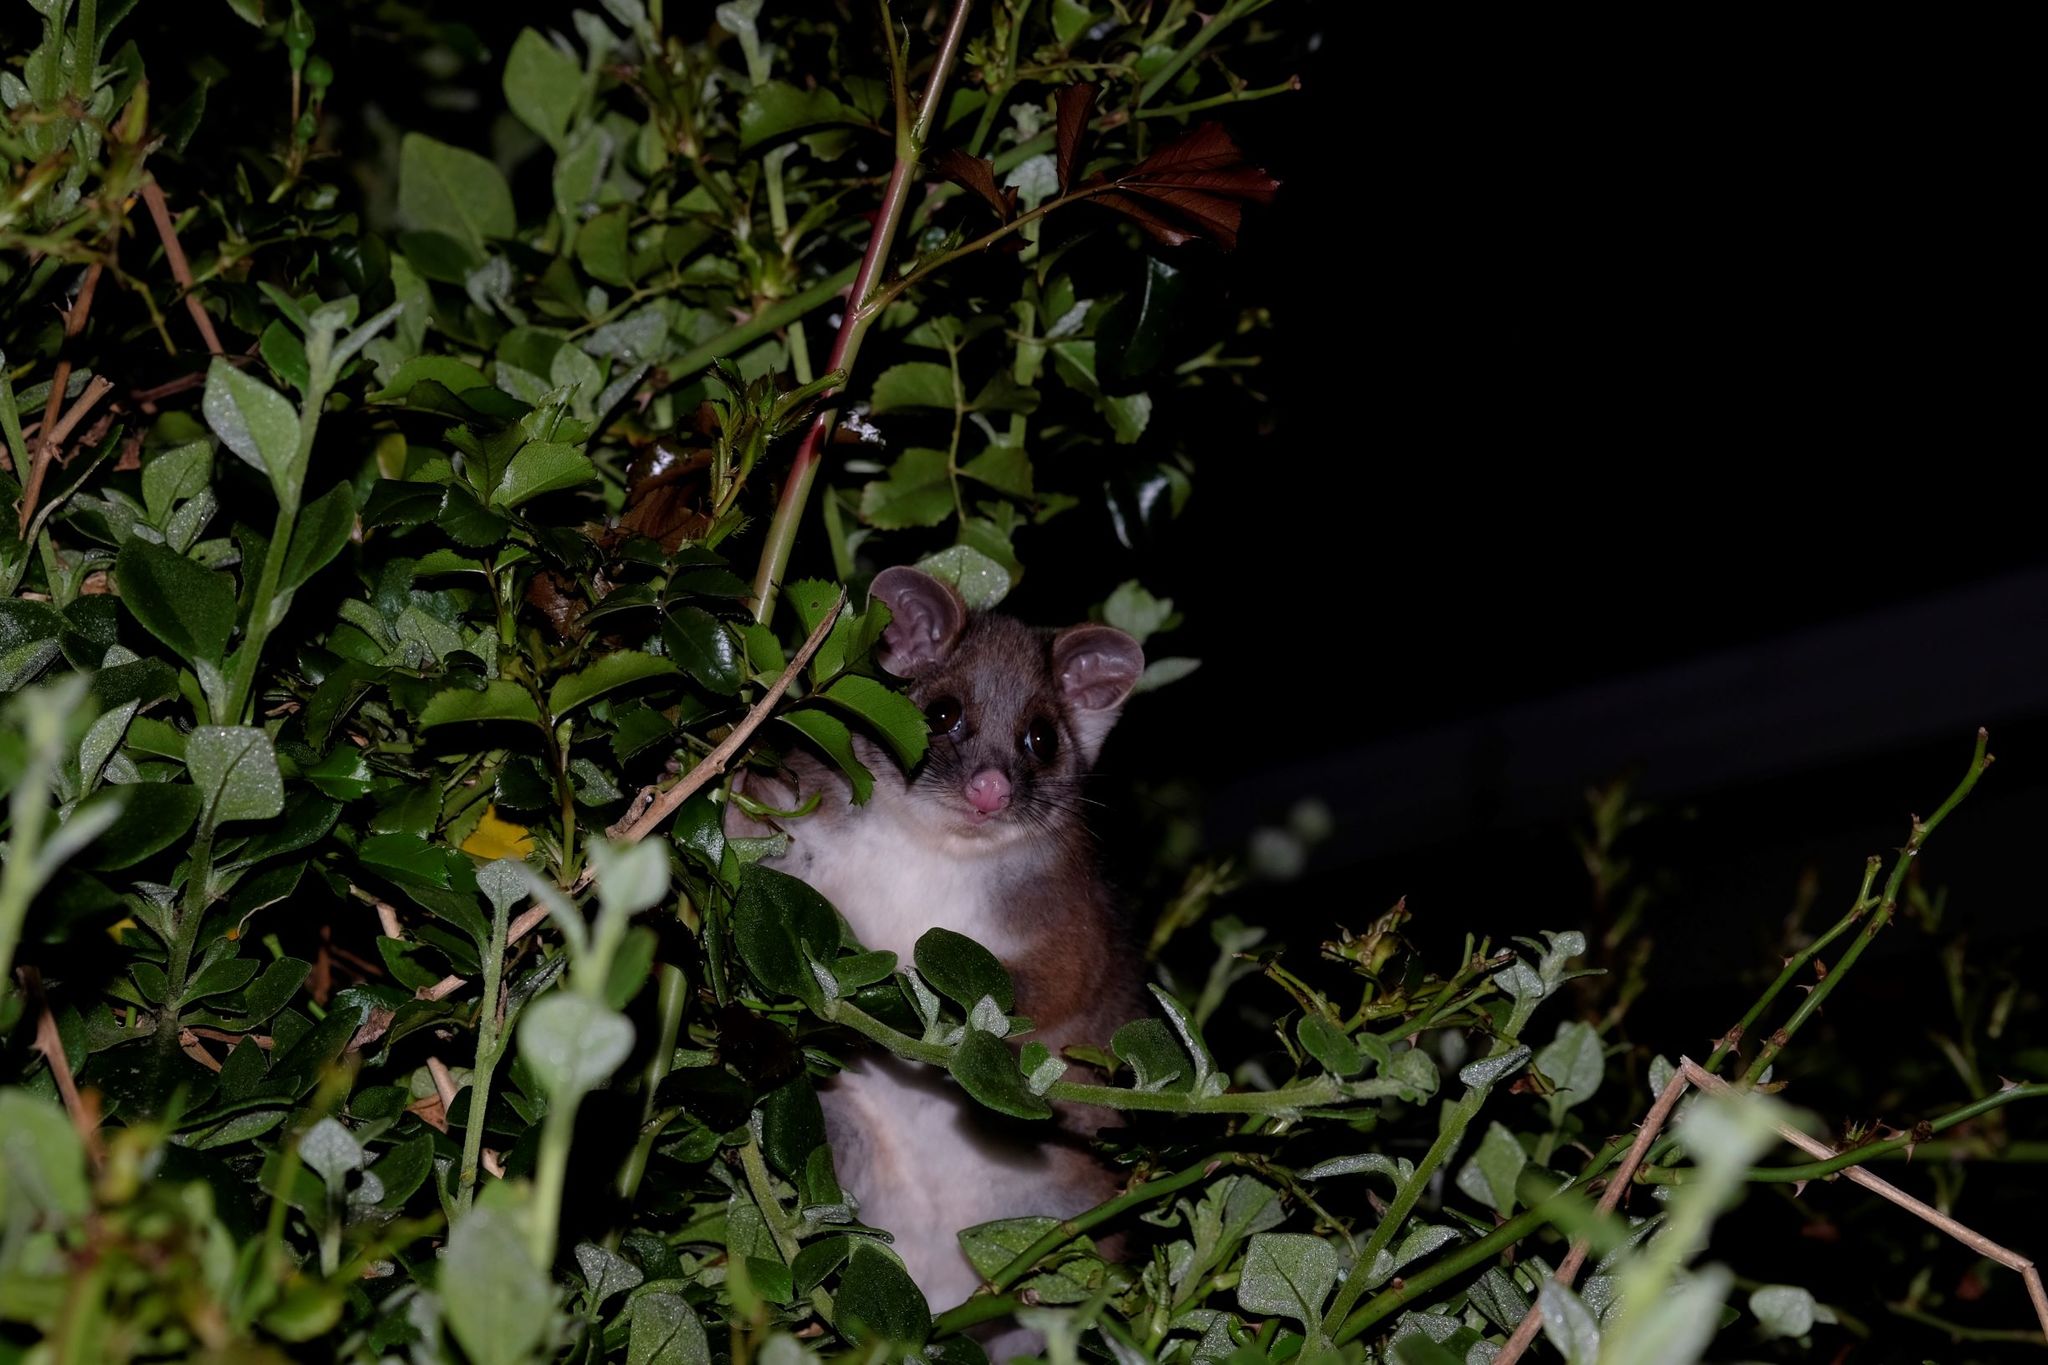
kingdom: Animalia
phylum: Chordata
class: Mammalia
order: Diprotodontia
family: Pseudocheiridae
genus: Pseudocheirus
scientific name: Pseudocheirus peregrinus
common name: Common ringtail possum
